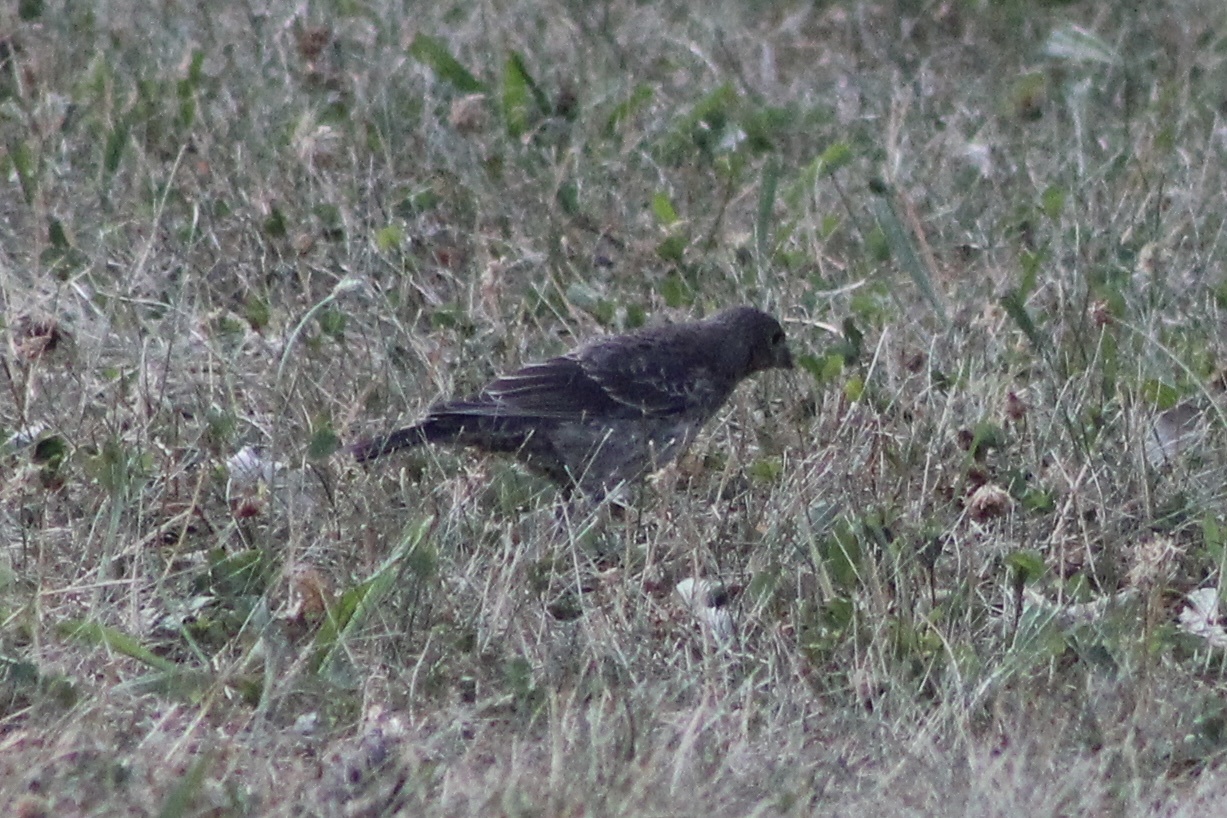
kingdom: Animalia
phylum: Chordata
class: Aves
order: Passeriformes
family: Icteridae
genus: Molothrus
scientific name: Molothrus ater
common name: Brown-headed cowbird
